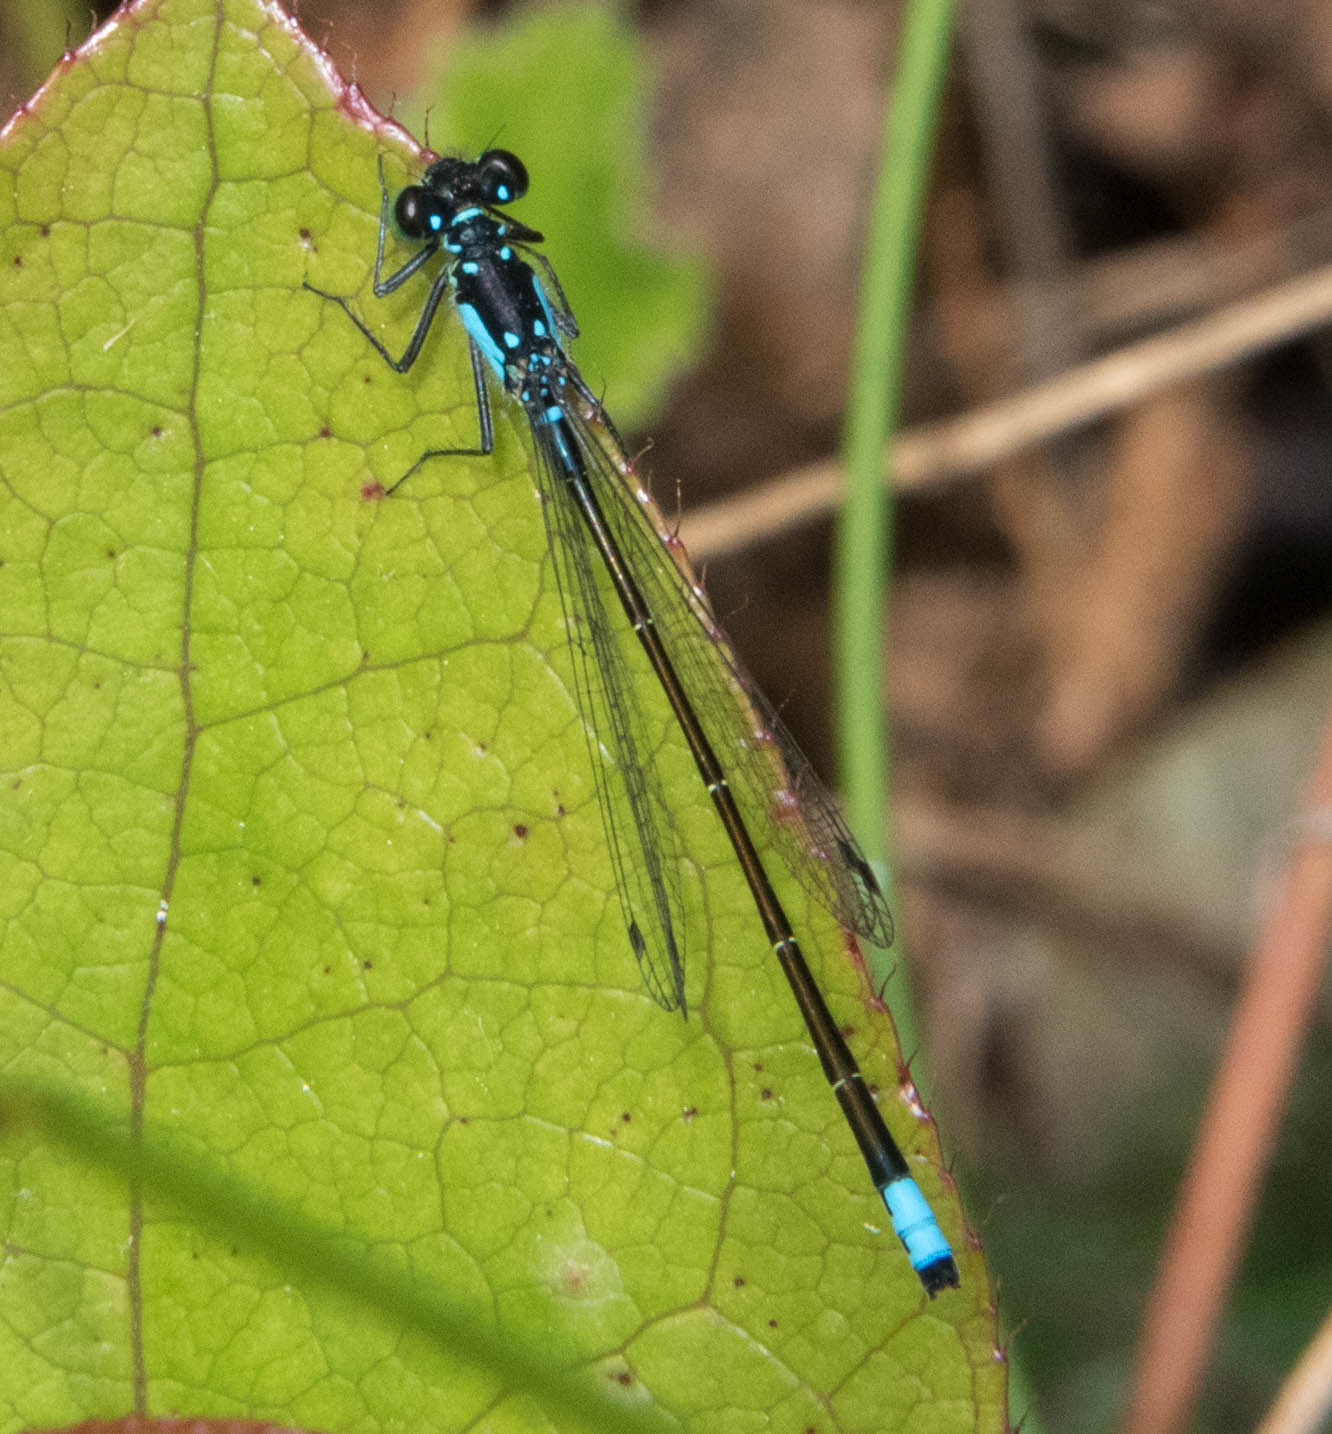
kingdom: Animalia
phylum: Arthropoda
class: Insecta
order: Odonata
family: Coenagrionidae
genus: Ischnura
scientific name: Ischnura cervula
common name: Pacific forktail
